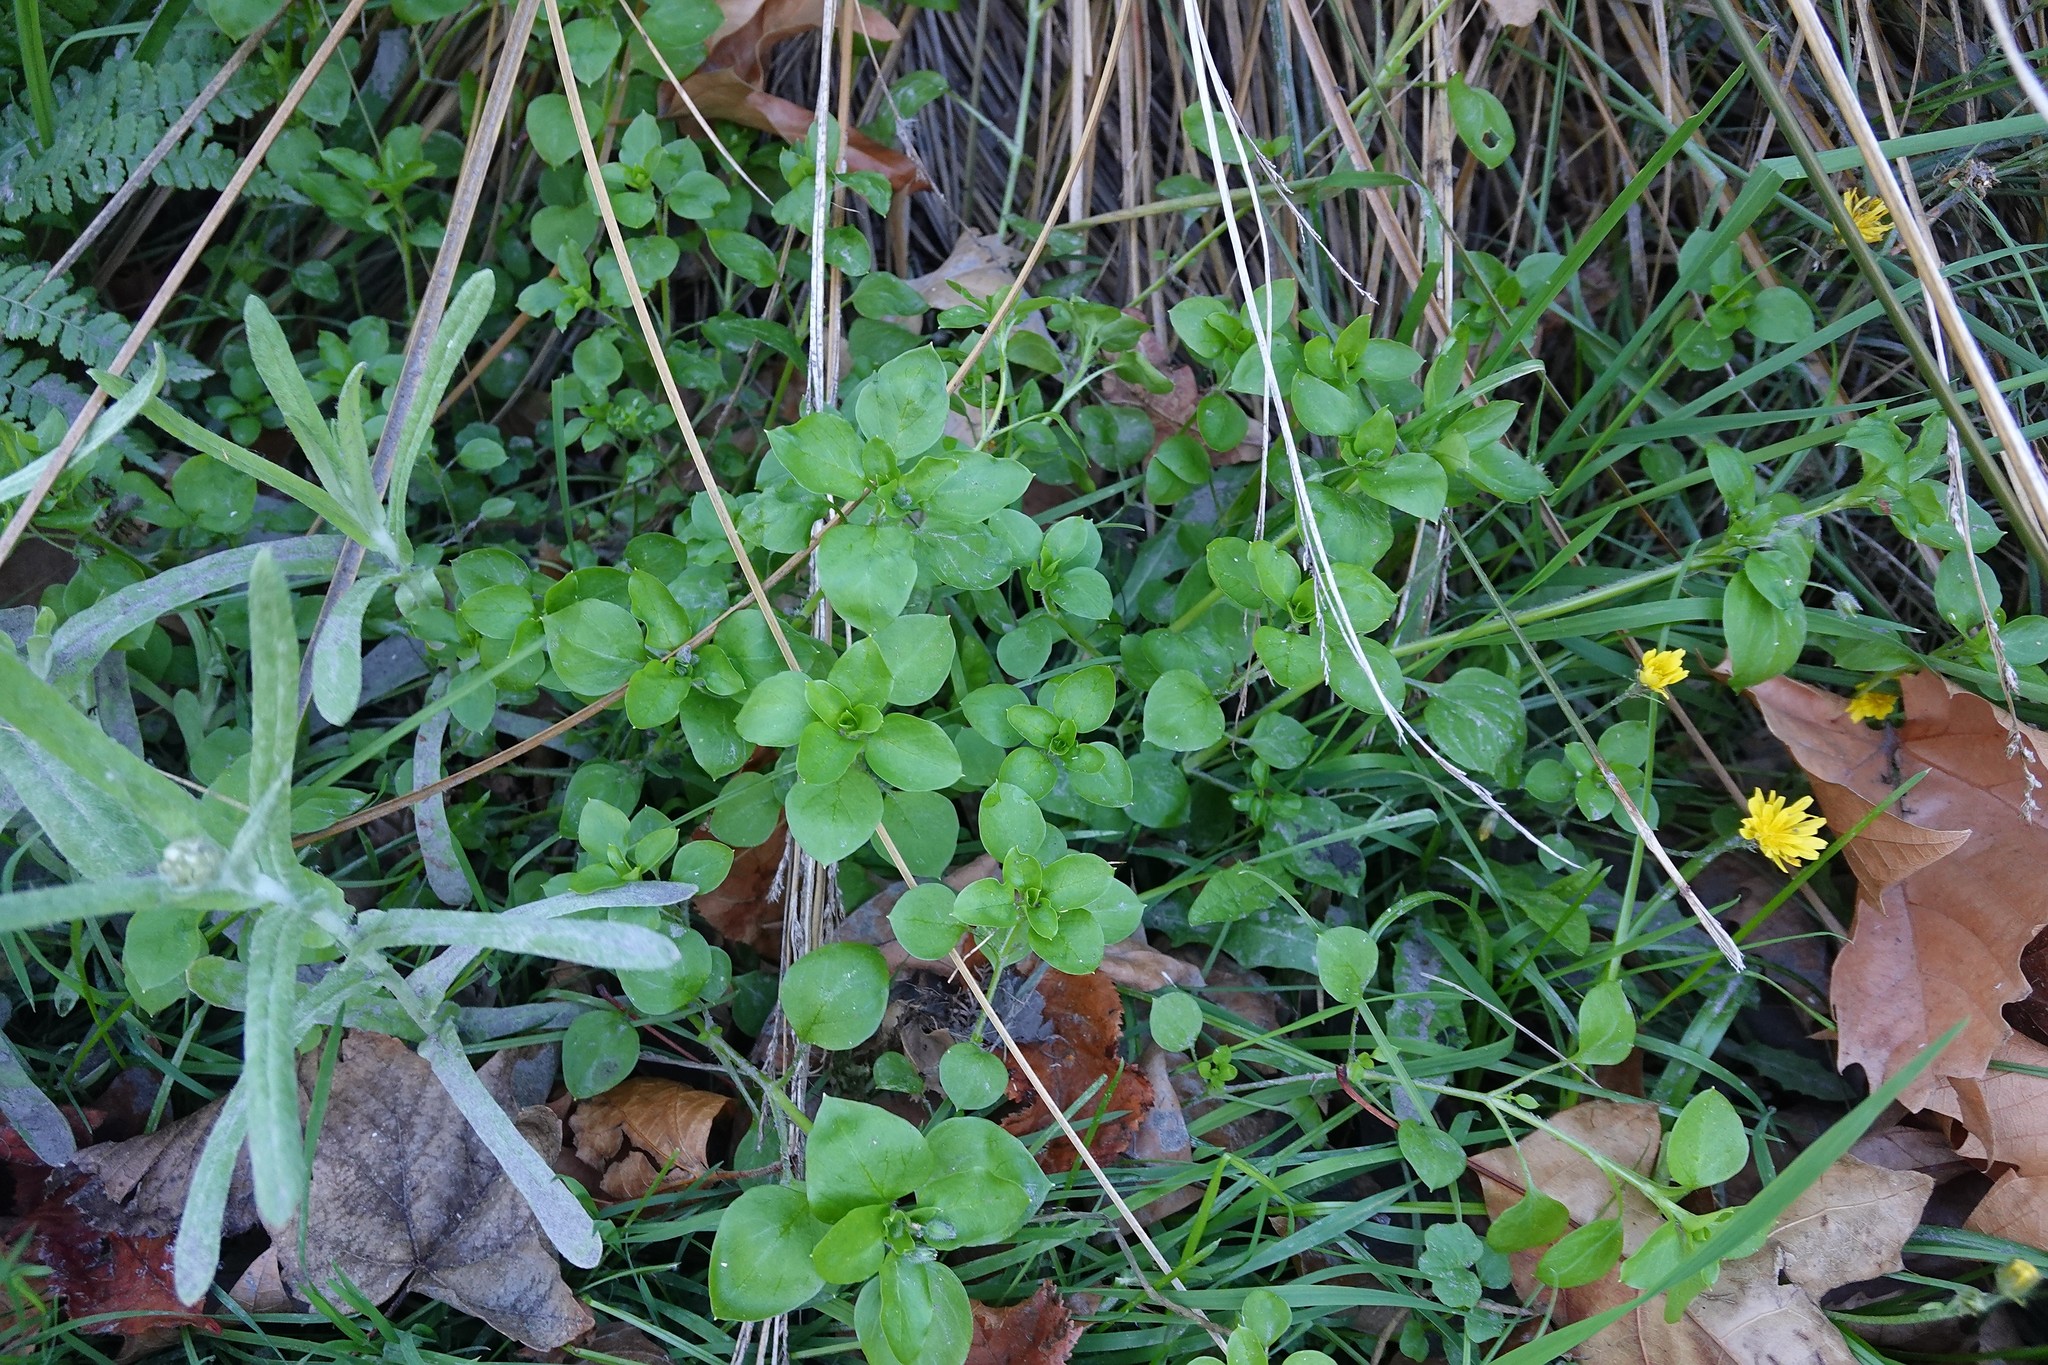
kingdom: Plantae
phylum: Tracheophyta
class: Magnoliopsida
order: Caryophyllales
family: Caryophyllaceae
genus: Stellaria
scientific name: Stellaria media
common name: Common chickweed
